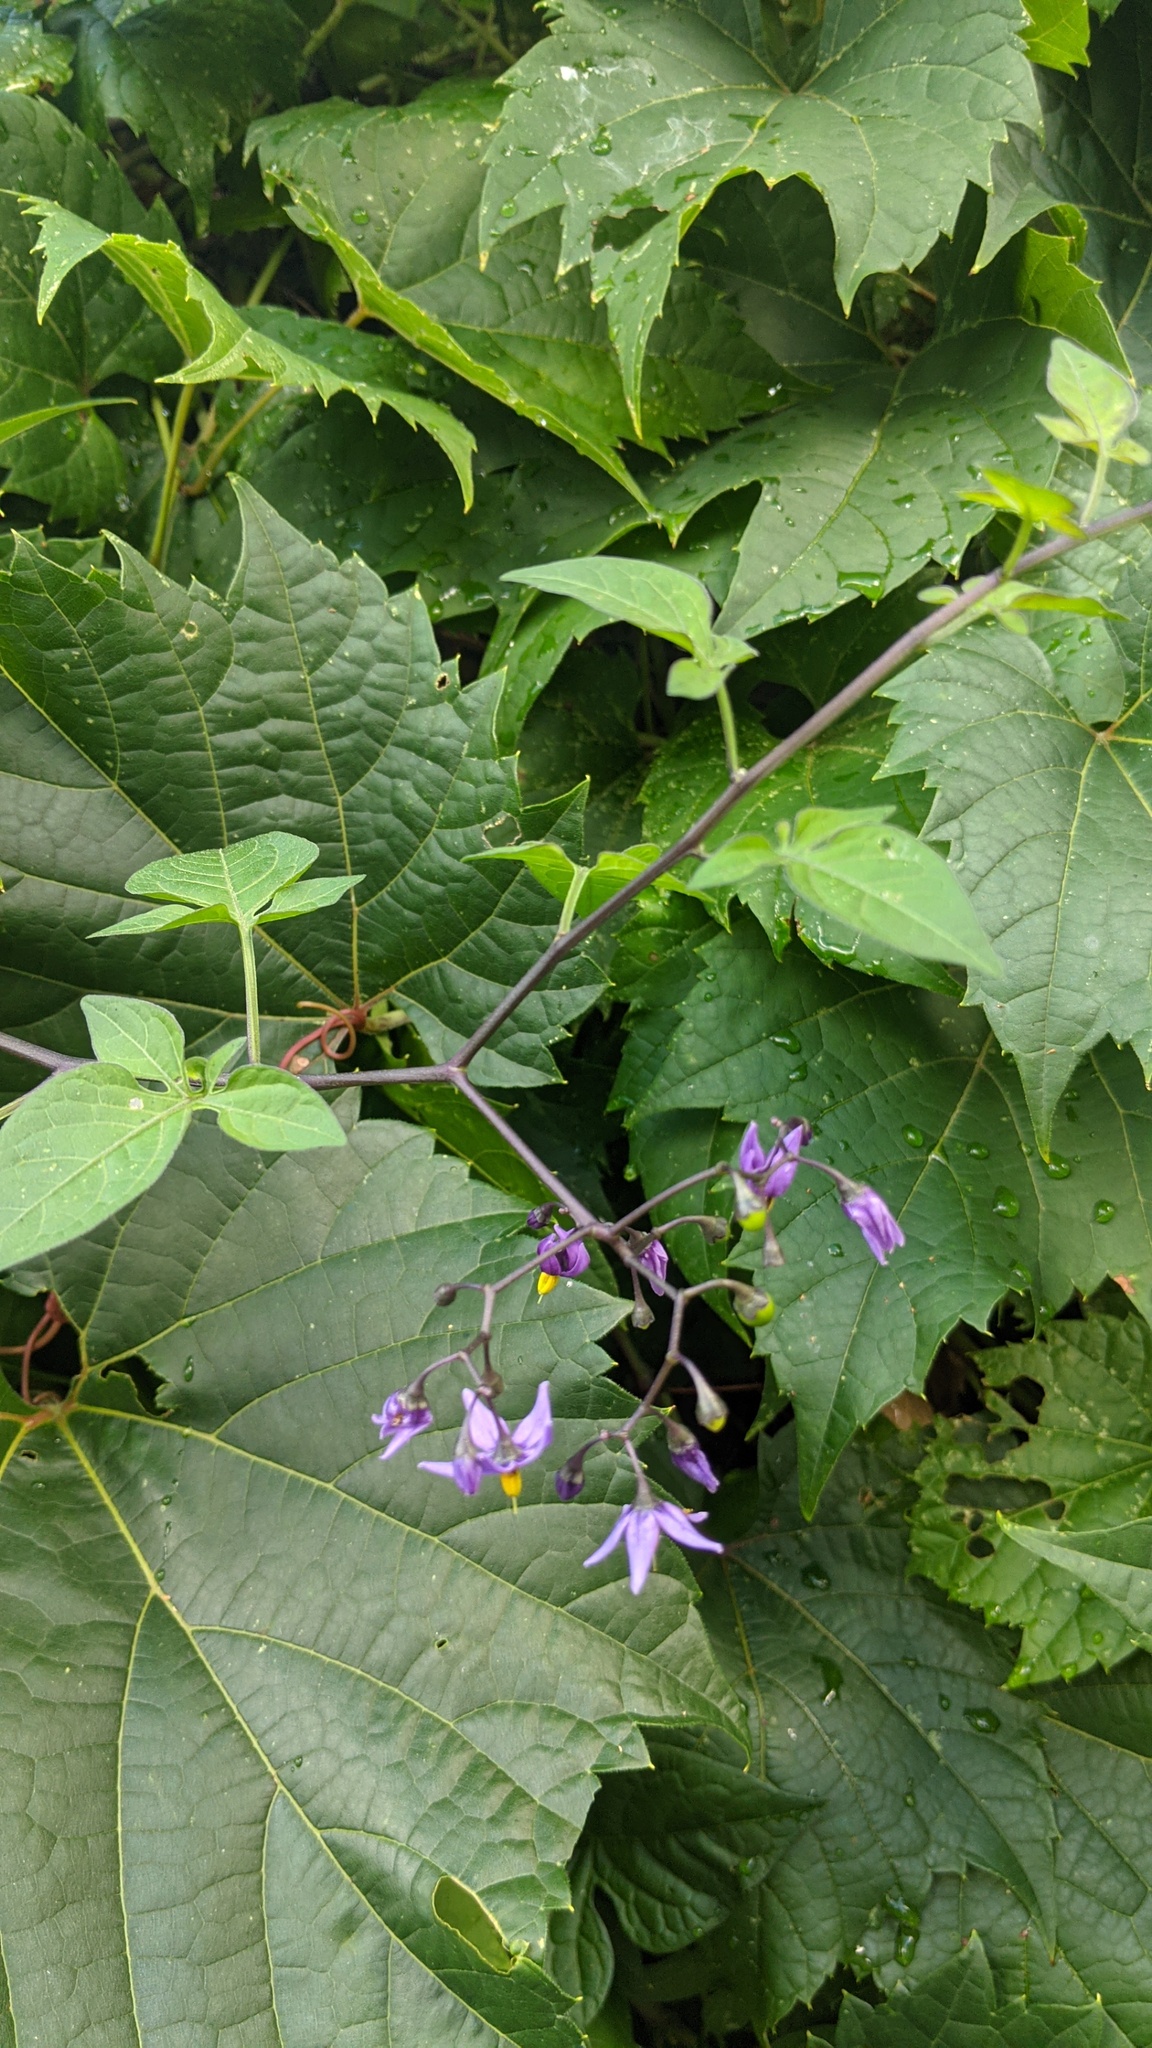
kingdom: Plantae
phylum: Tracheophyta
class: Magnoliopsida
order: Solanales
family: Solanaceae
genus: Solanum
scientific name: Solanum dulcamara
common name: Climbing nightshade
